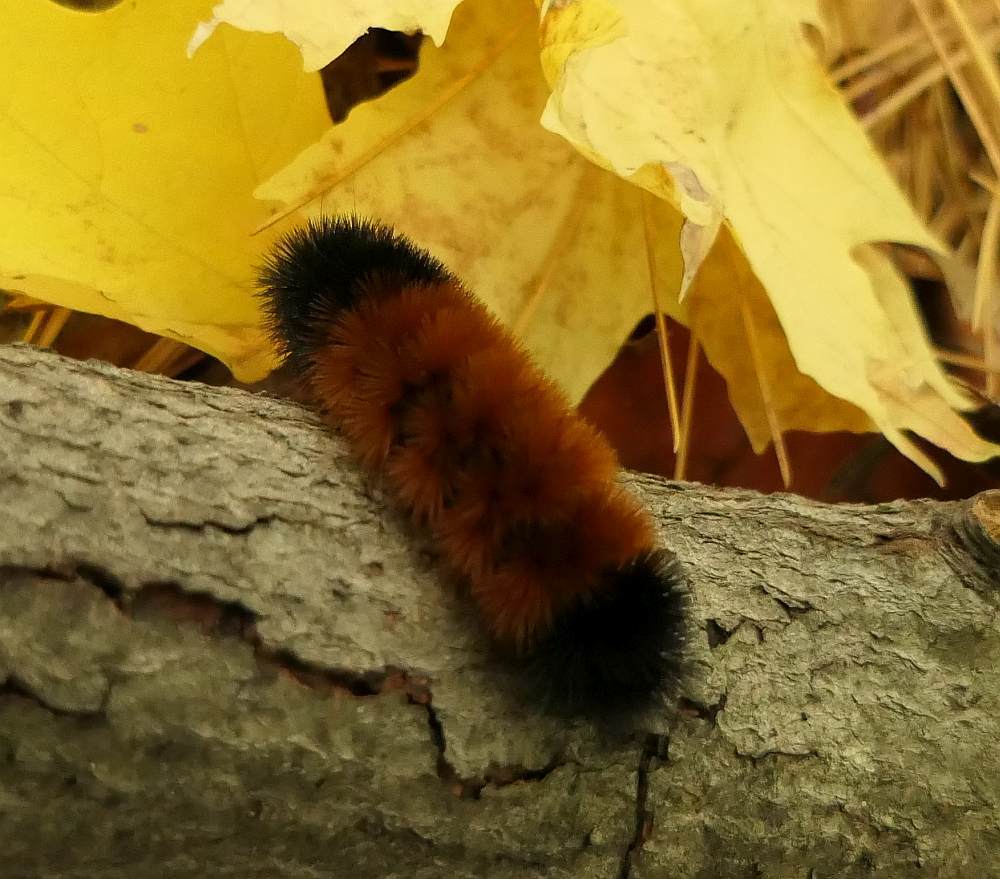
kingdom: Animalia
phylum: Arthropoda
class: Insecta
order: Lepidoptera
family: Erebidae
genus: Pyrrharctia
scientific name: Pyrrharctia isabella
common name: Isabella tiger moth
